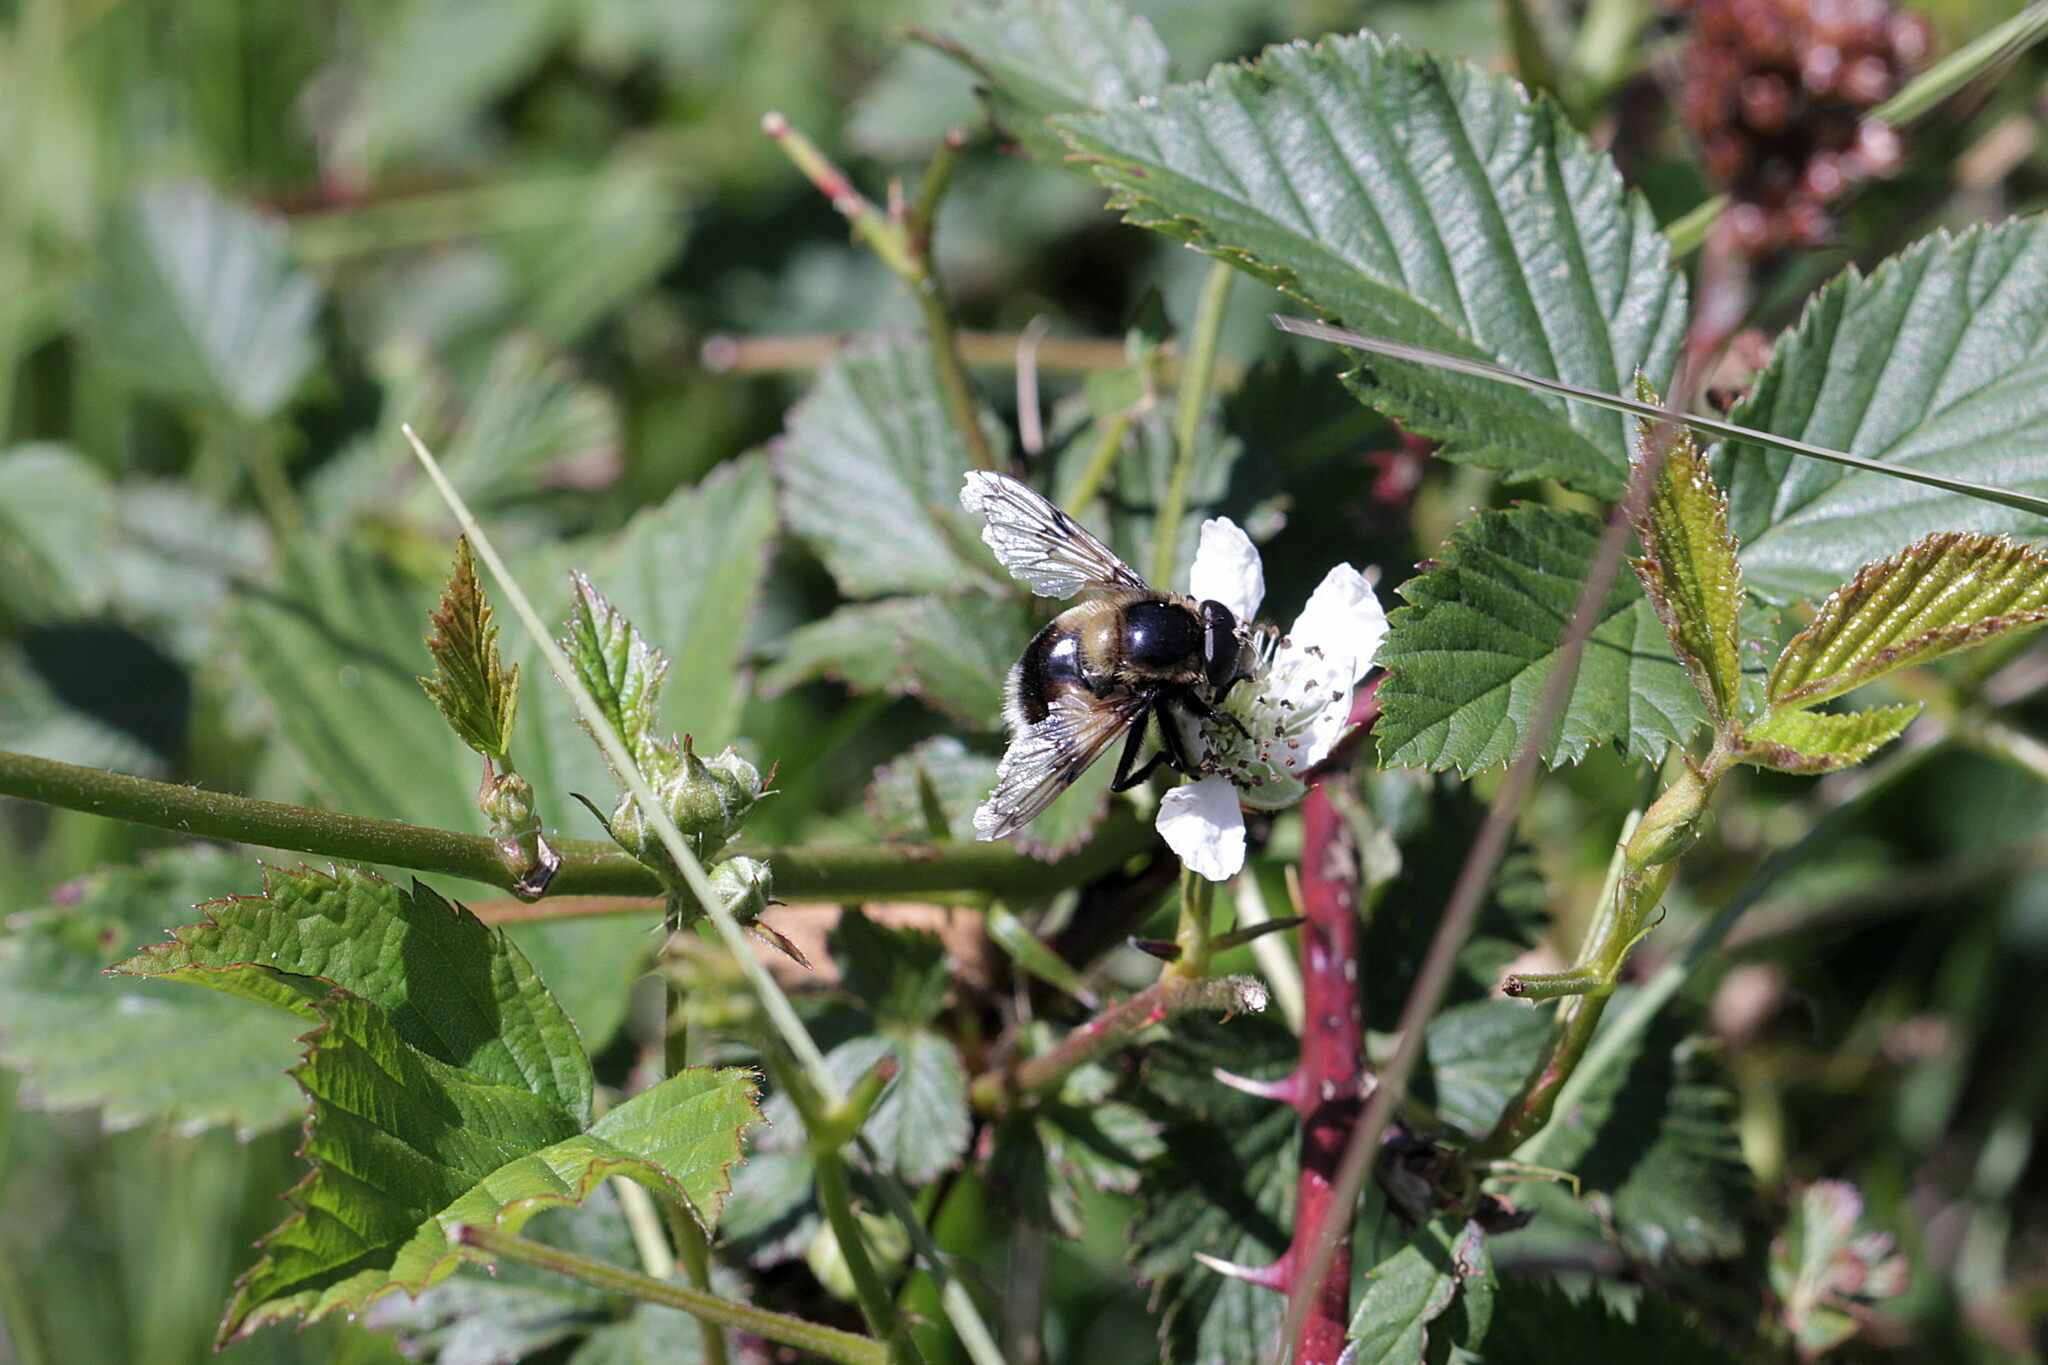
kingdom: Animalia
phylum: Arthropoda
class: Insecta
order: Diptera
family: Syrphidae
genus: Volucella
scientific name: Volucella bombylans
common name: Bumble bee hover fly
